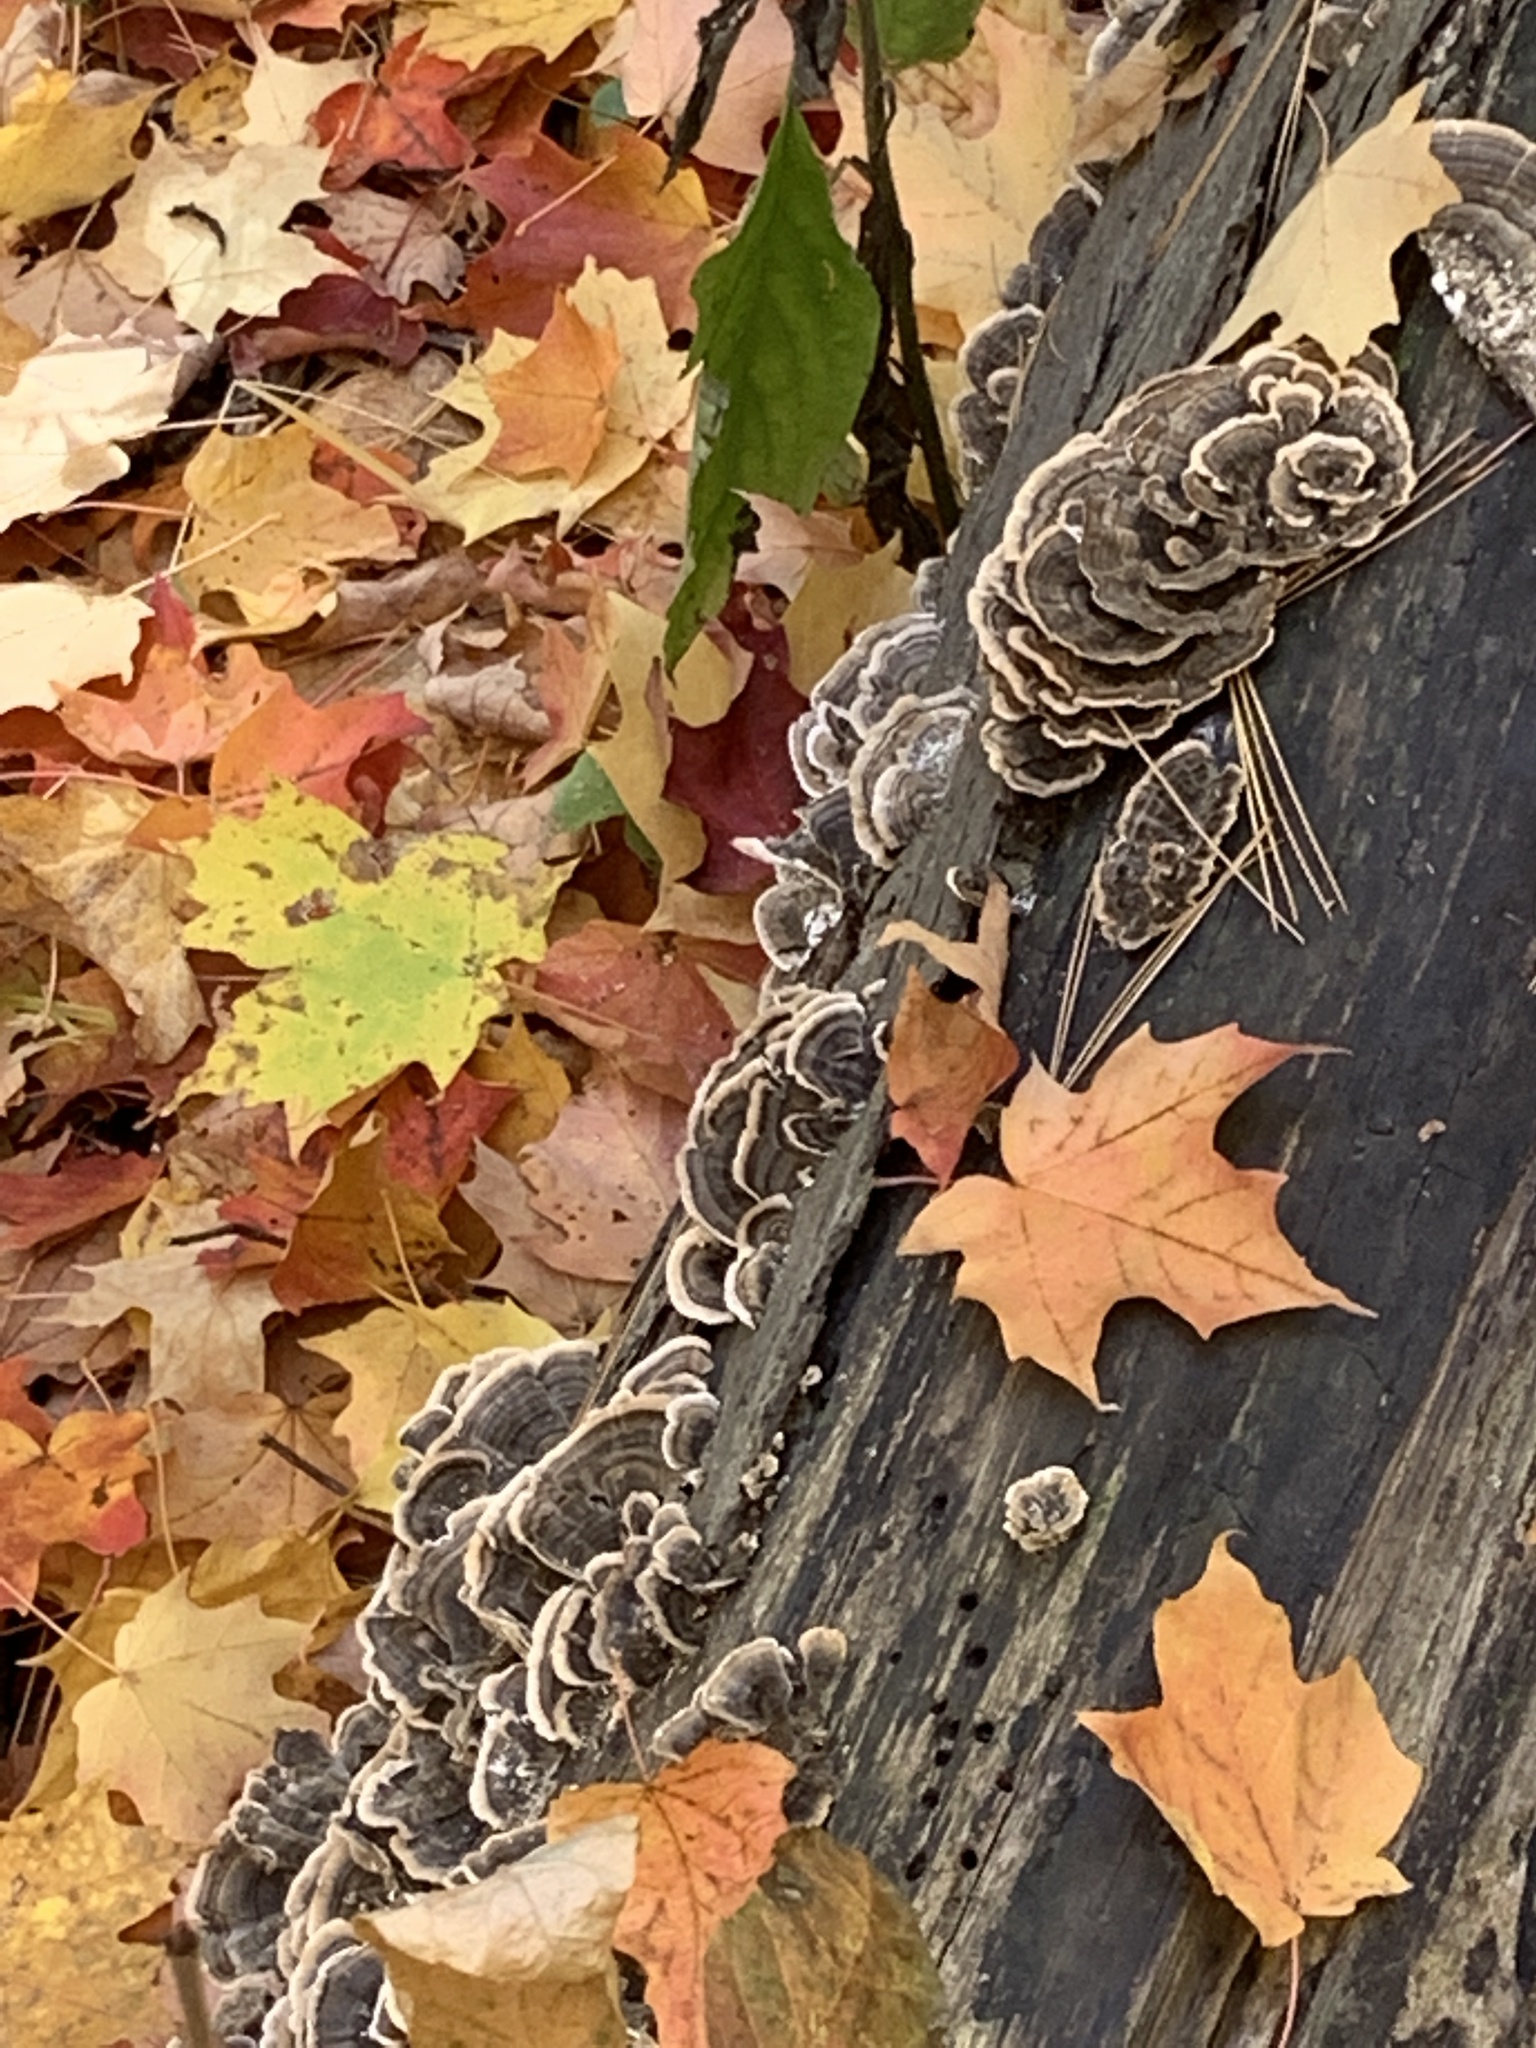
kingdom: Fungi
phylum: Basidiomycota
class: Agaricomycetes
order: Polyporales
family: Polyporaceae
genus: Trametes
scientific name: Trametes versicolor
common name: Turkeytail
